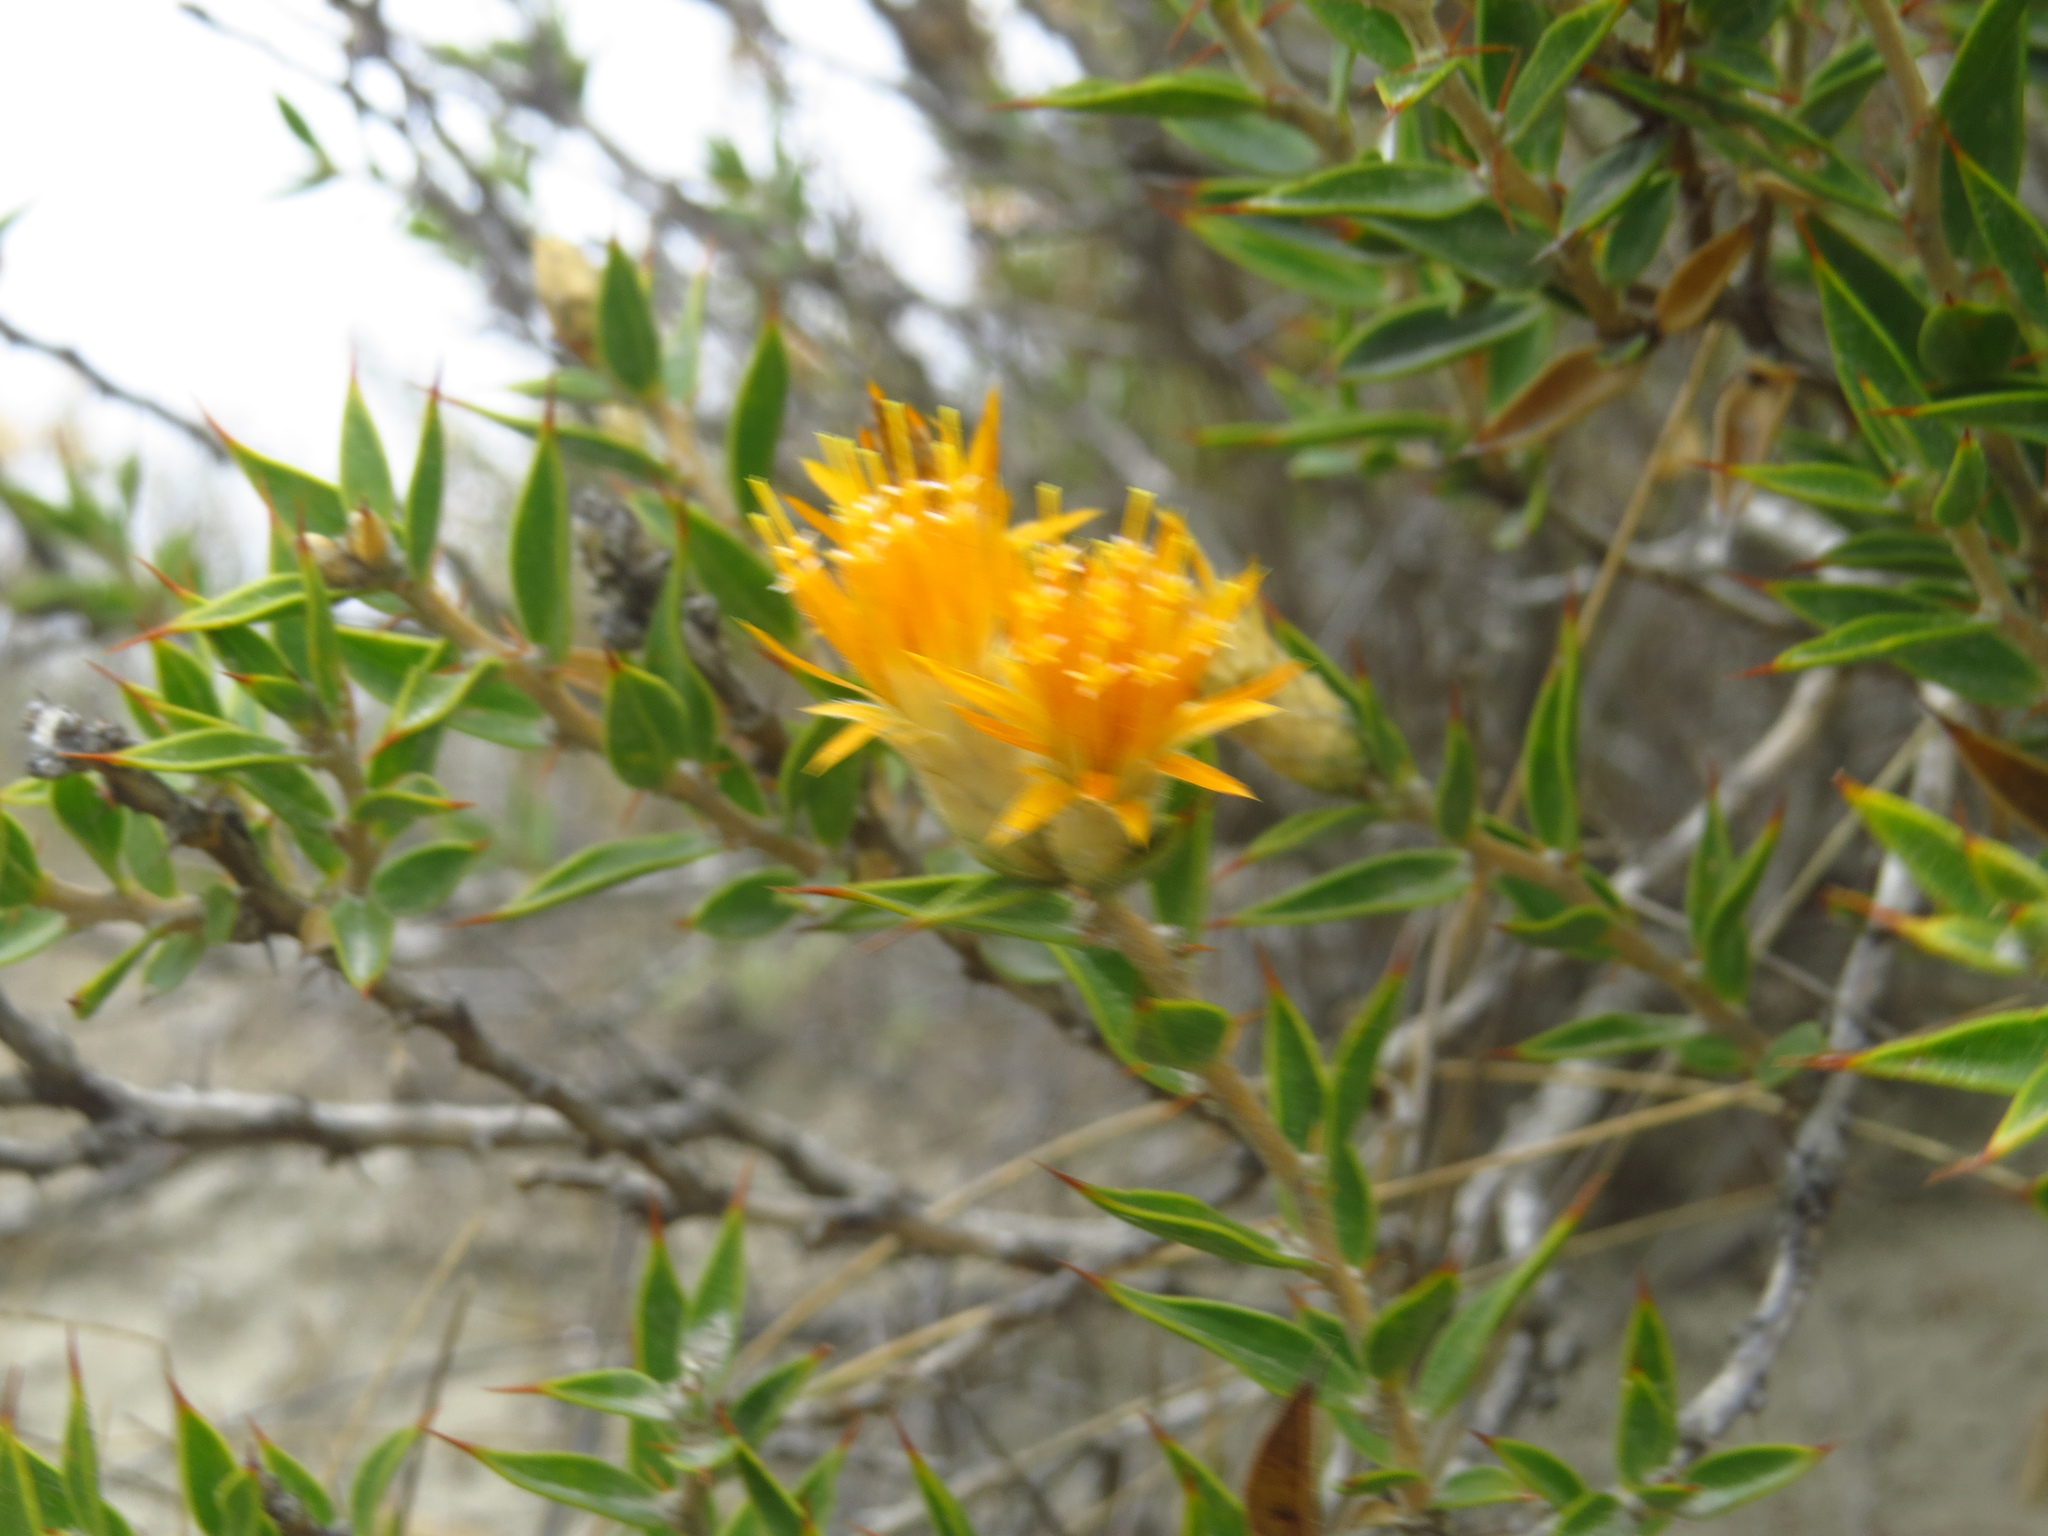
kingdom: Plantae
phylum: Tracheophyta
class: Magnoliopsida
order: Asterales
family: Asteraceae
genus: Chuquiraga
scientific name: Chuquiraga avellanedae
